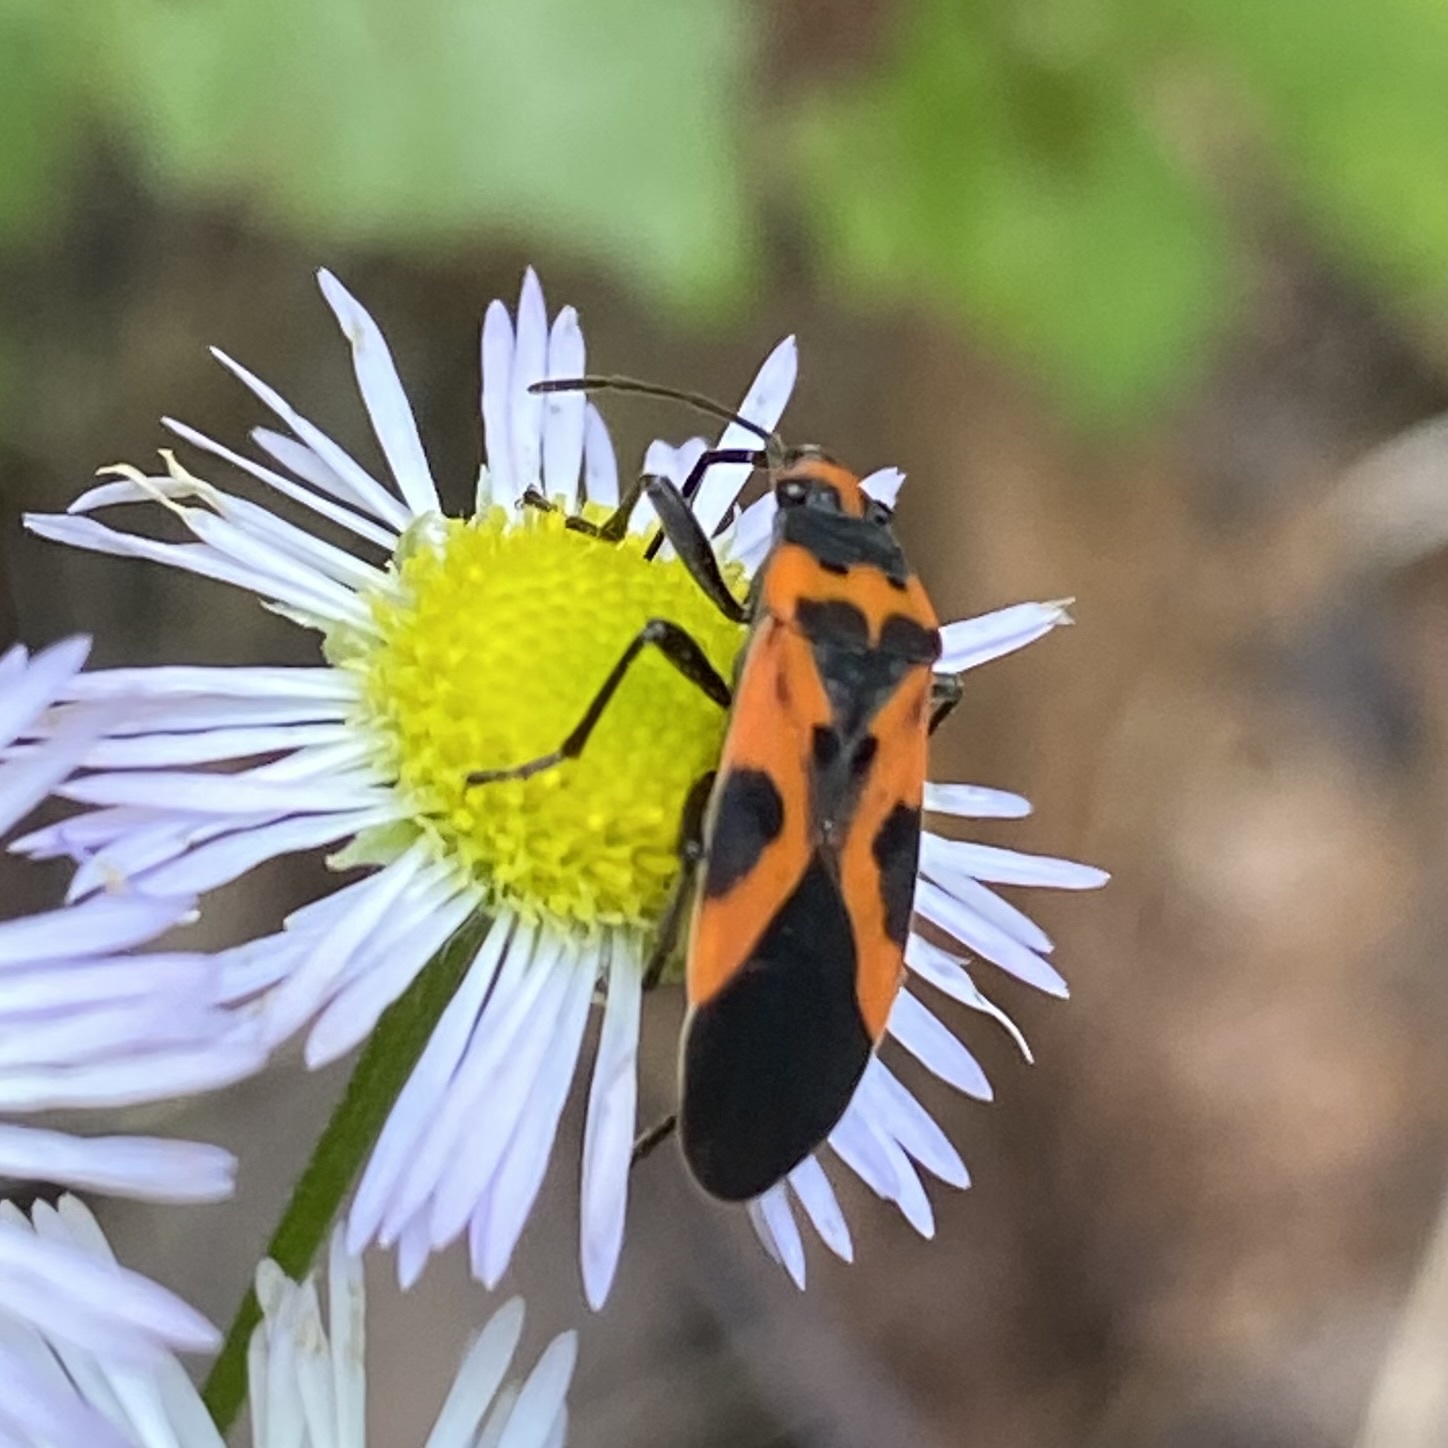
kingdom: Animalia
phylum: Arthropoda
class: Insecta
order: Hemiptera
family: Lygaeidae
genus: Lygaeus
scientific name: Lygaeus turcicus
